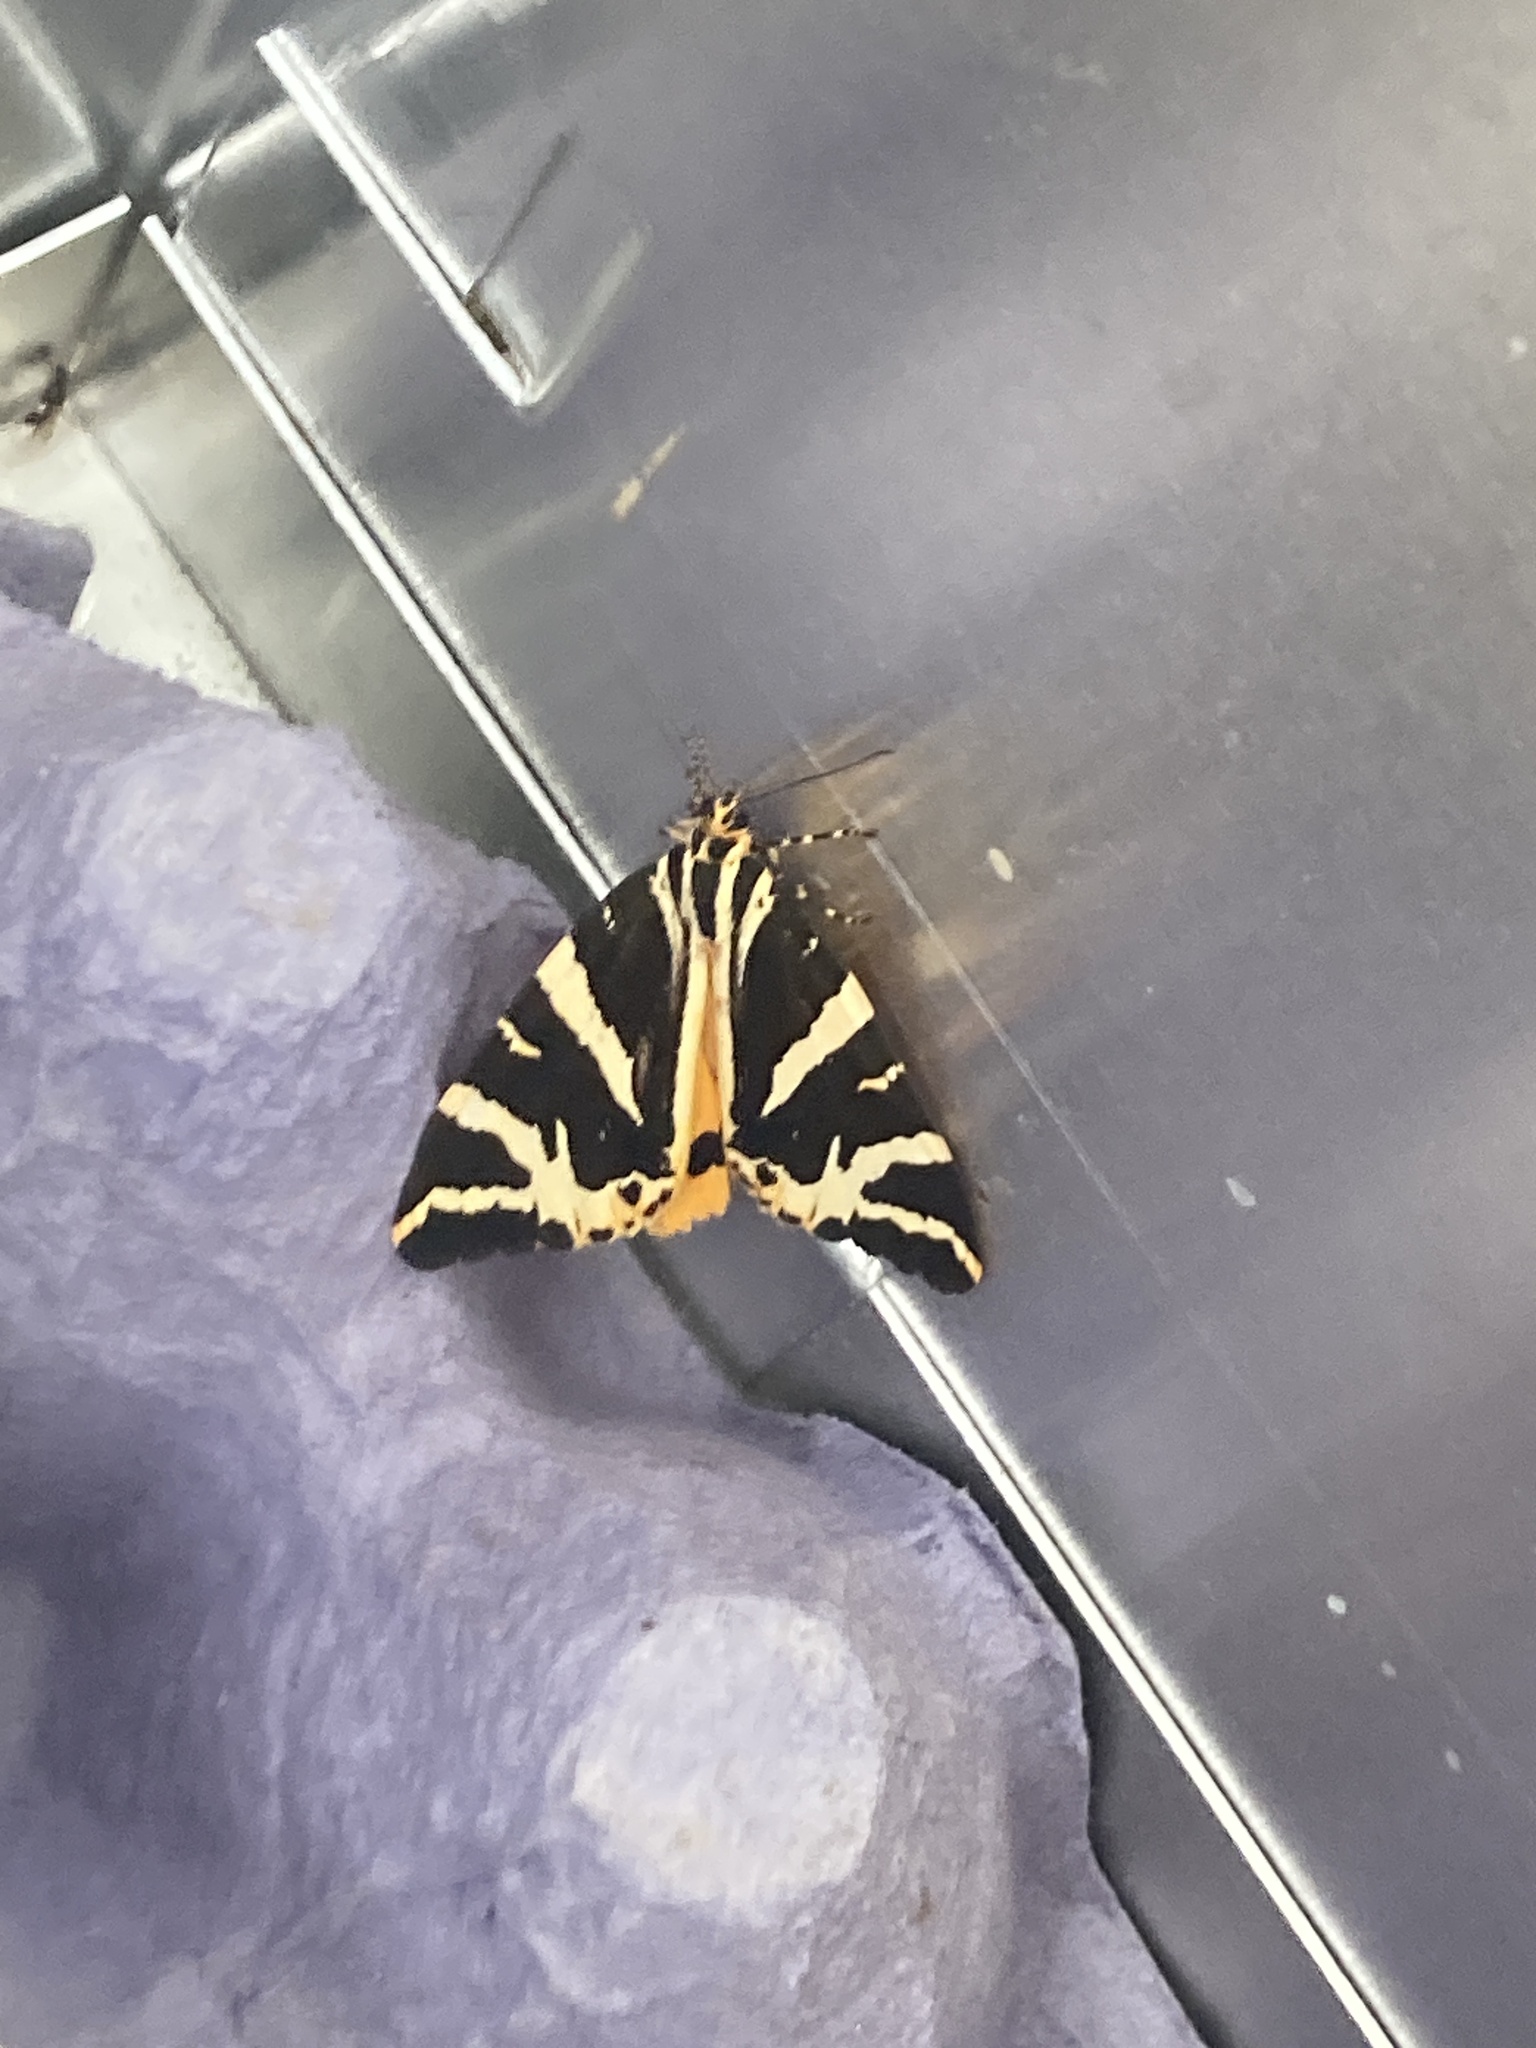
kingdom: Animalia
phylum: Arthropoda
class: Insecta
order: Lepidoptera
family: Erebidae
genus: Euplagia
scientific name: Euplagia quadripunctaria
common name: Jersey tiger
